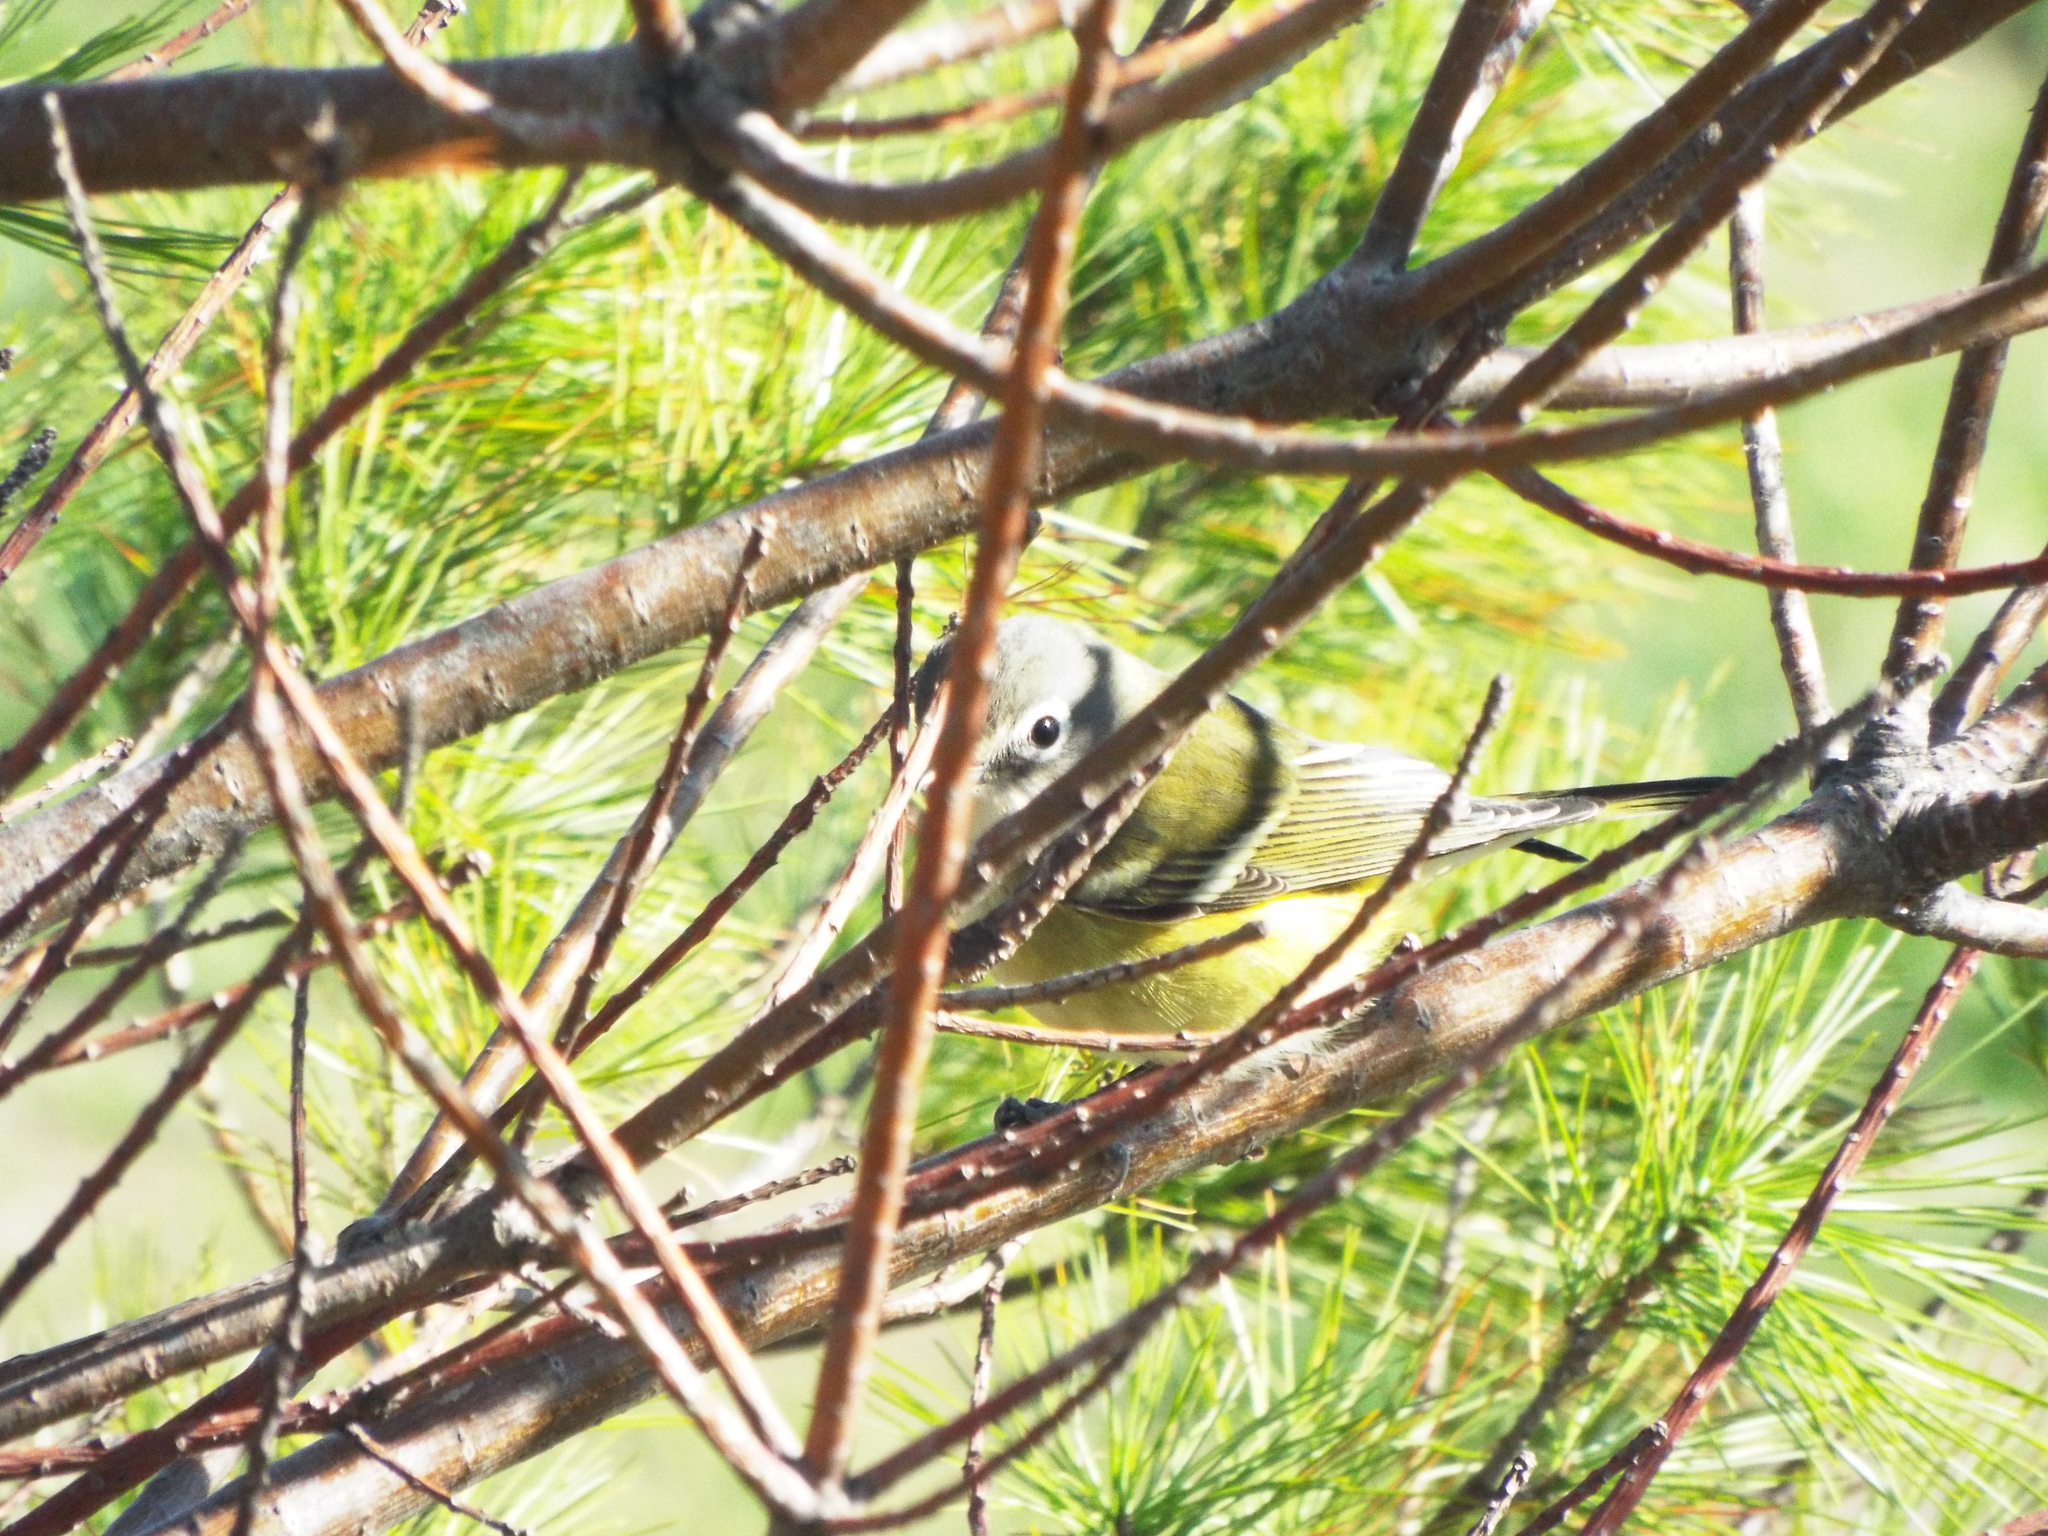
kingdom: Animalia
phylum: Chordata
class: Aves
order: Passeriformes
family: Vireonidae
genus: Vireo
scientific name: Vireo solitarius
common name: Blue-headed vireo
